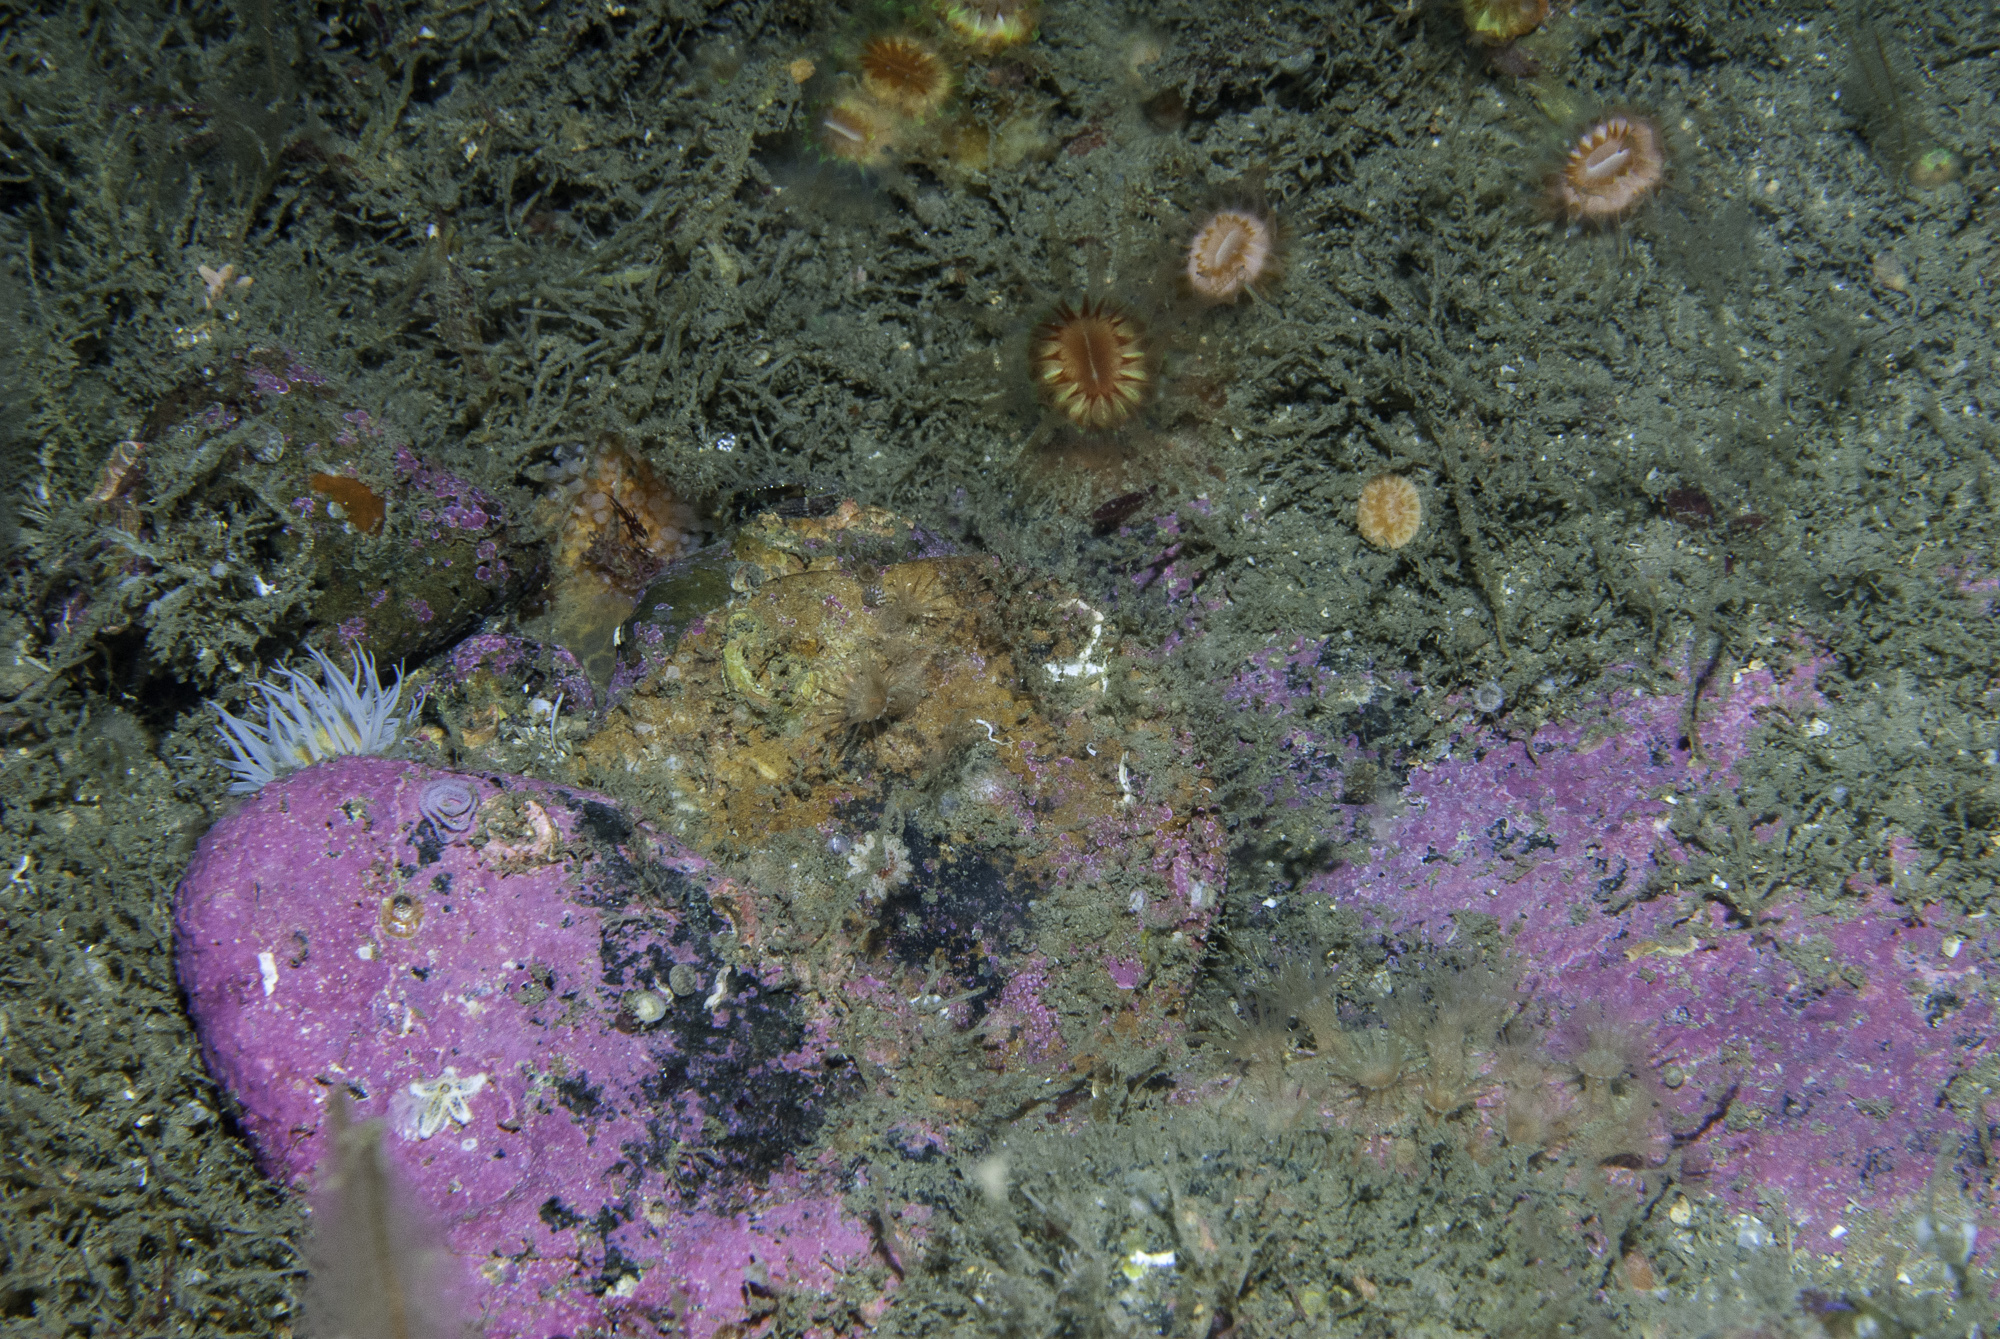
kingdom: Animalia
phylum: Cnidaria
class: Anthozoa
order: Zoantharia
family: Epizoanthidae
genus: Epizoanthus
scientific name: Epizoanthus couchii
